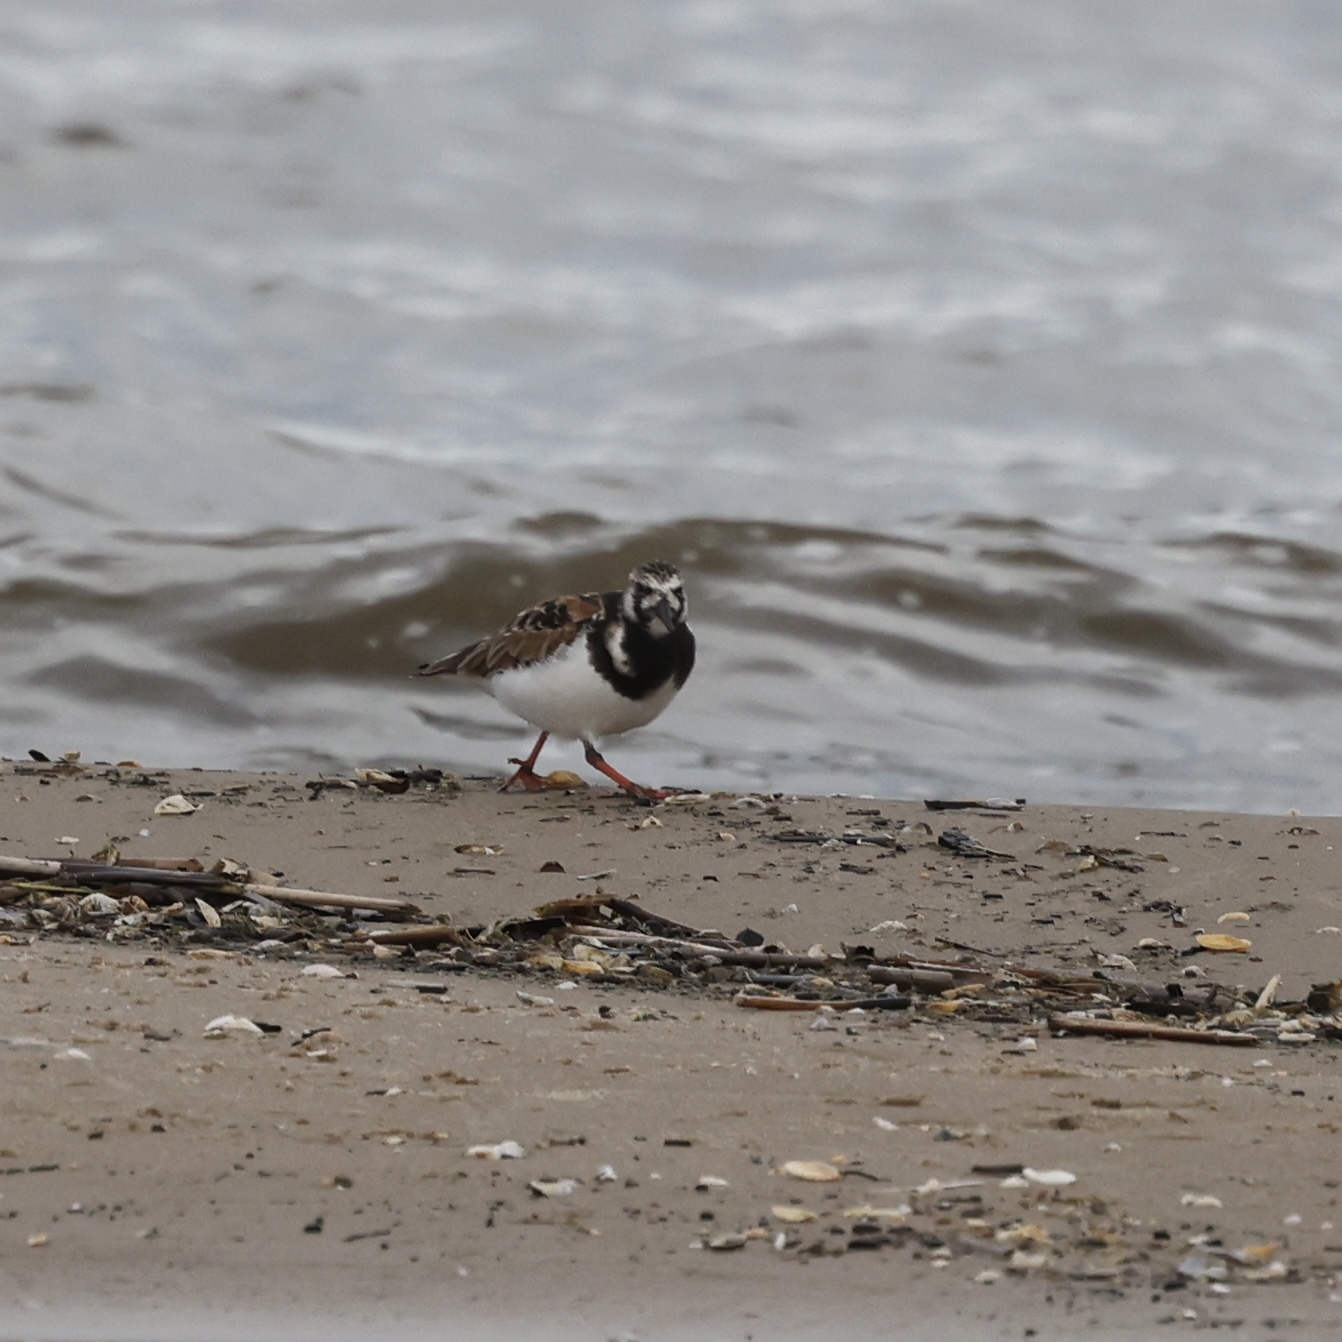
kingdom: Animalia
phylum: Chordata
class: Aves
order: Charadriiformes
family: Scolopacidae
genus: Arenaria
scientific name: Arenaria interpres
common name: Ruddy turnstone
